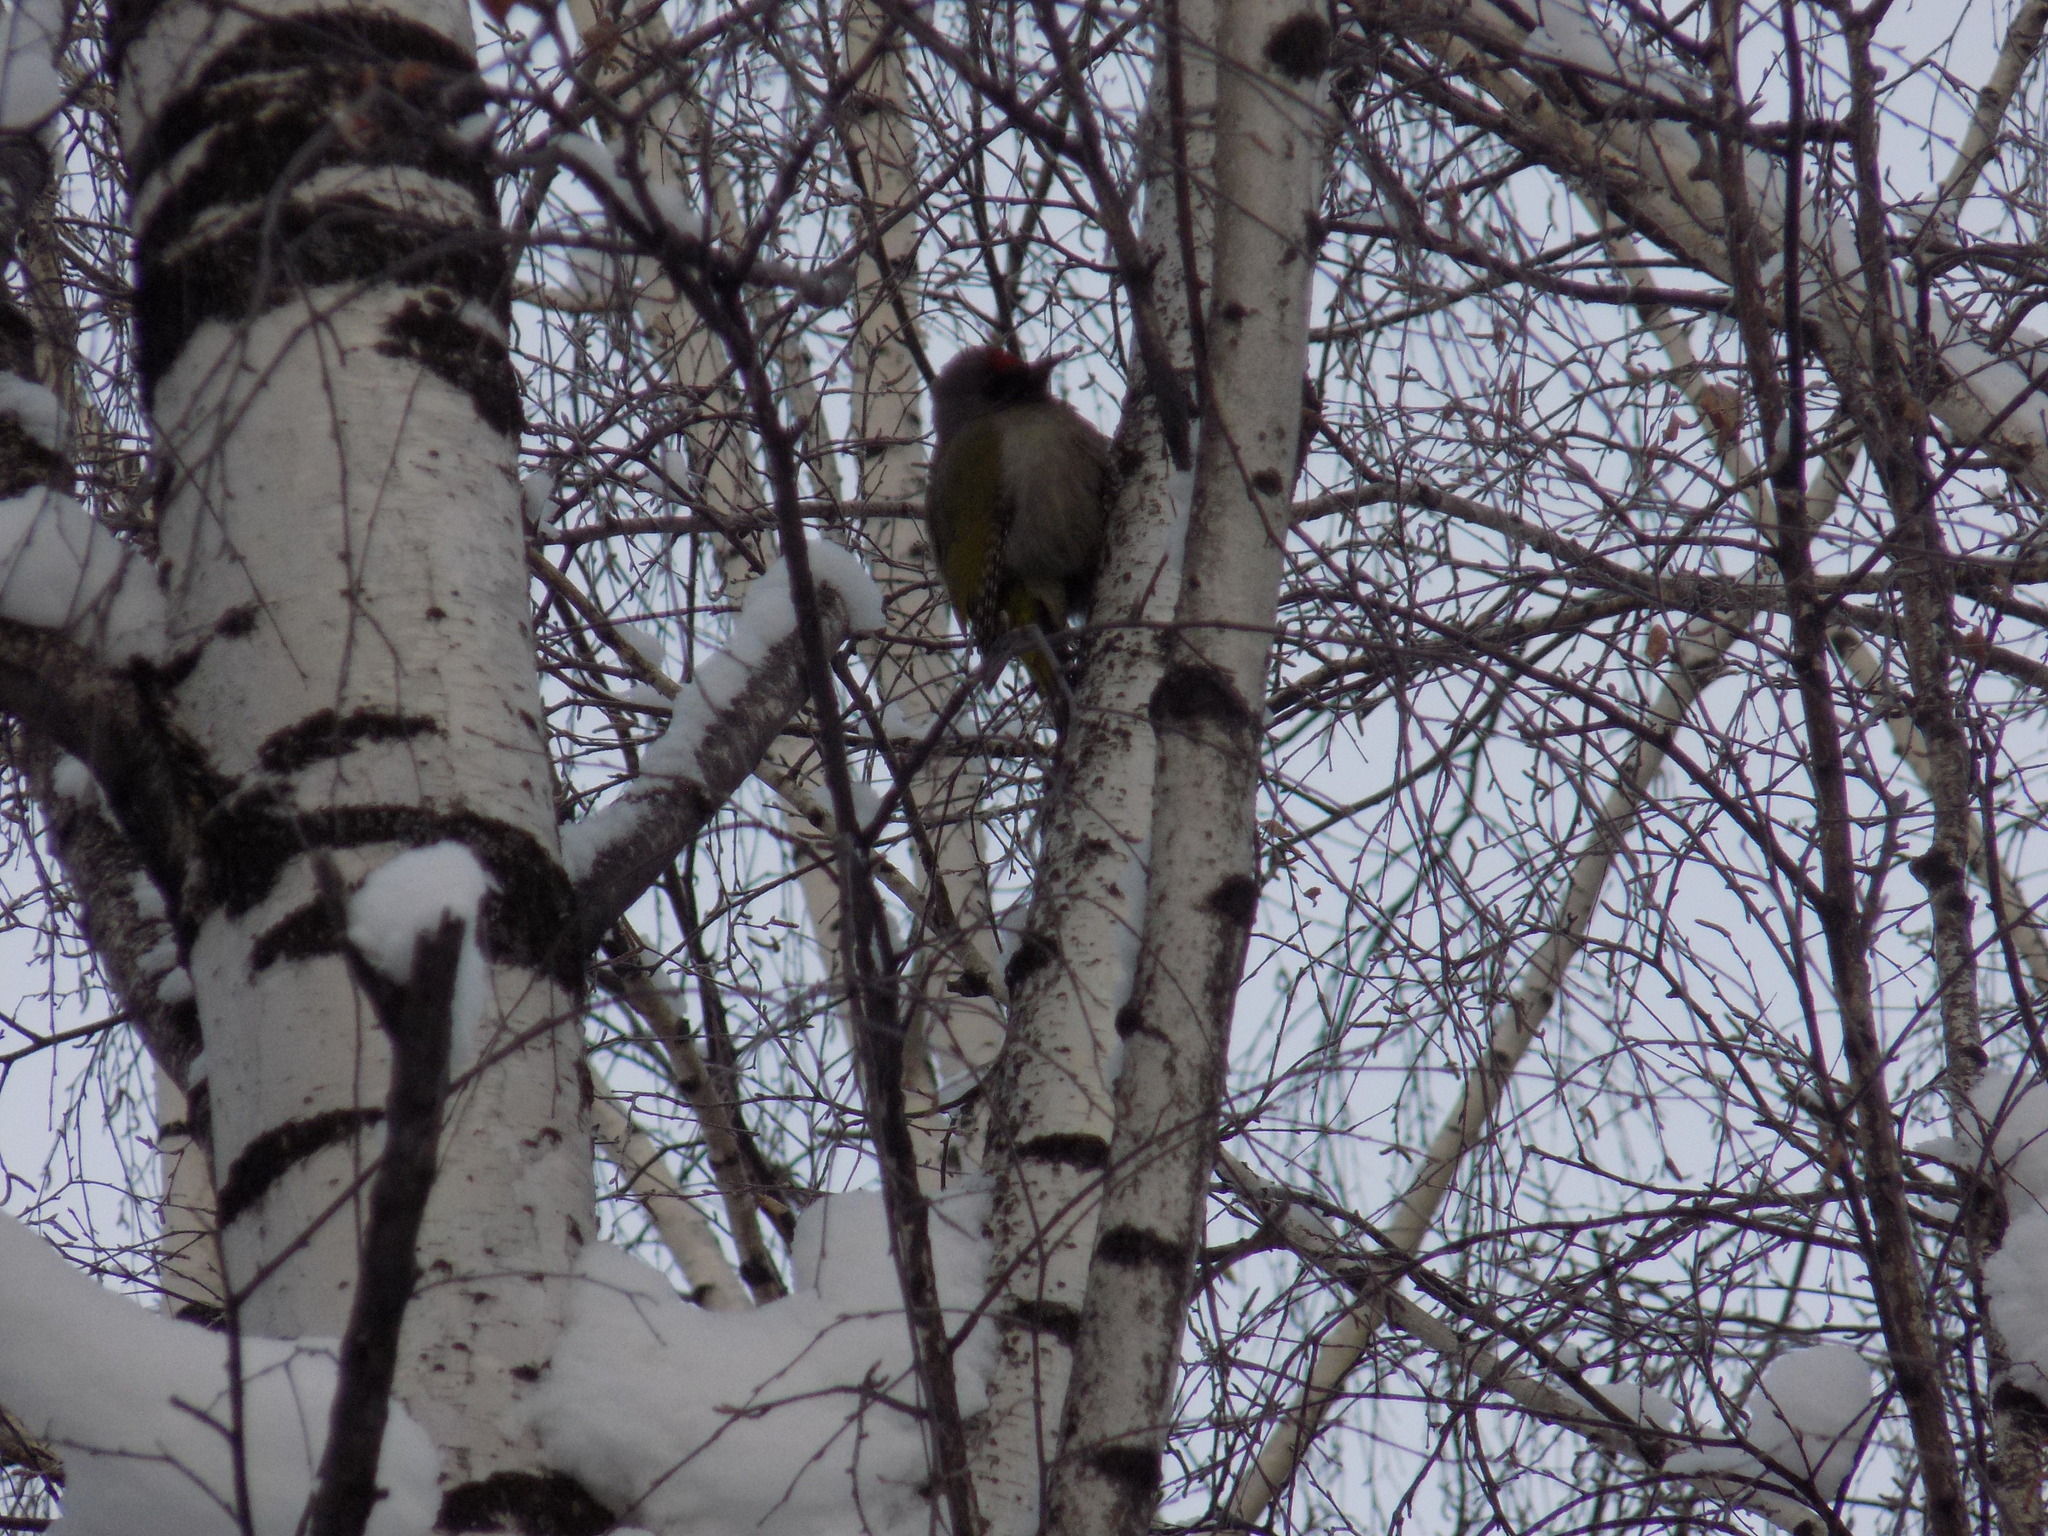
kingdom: Animalia
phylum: Chordata
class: Aves
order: Piciformes
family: Picidae
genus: Picus
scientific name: Picus canus
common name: Grey-headed woodpecker
